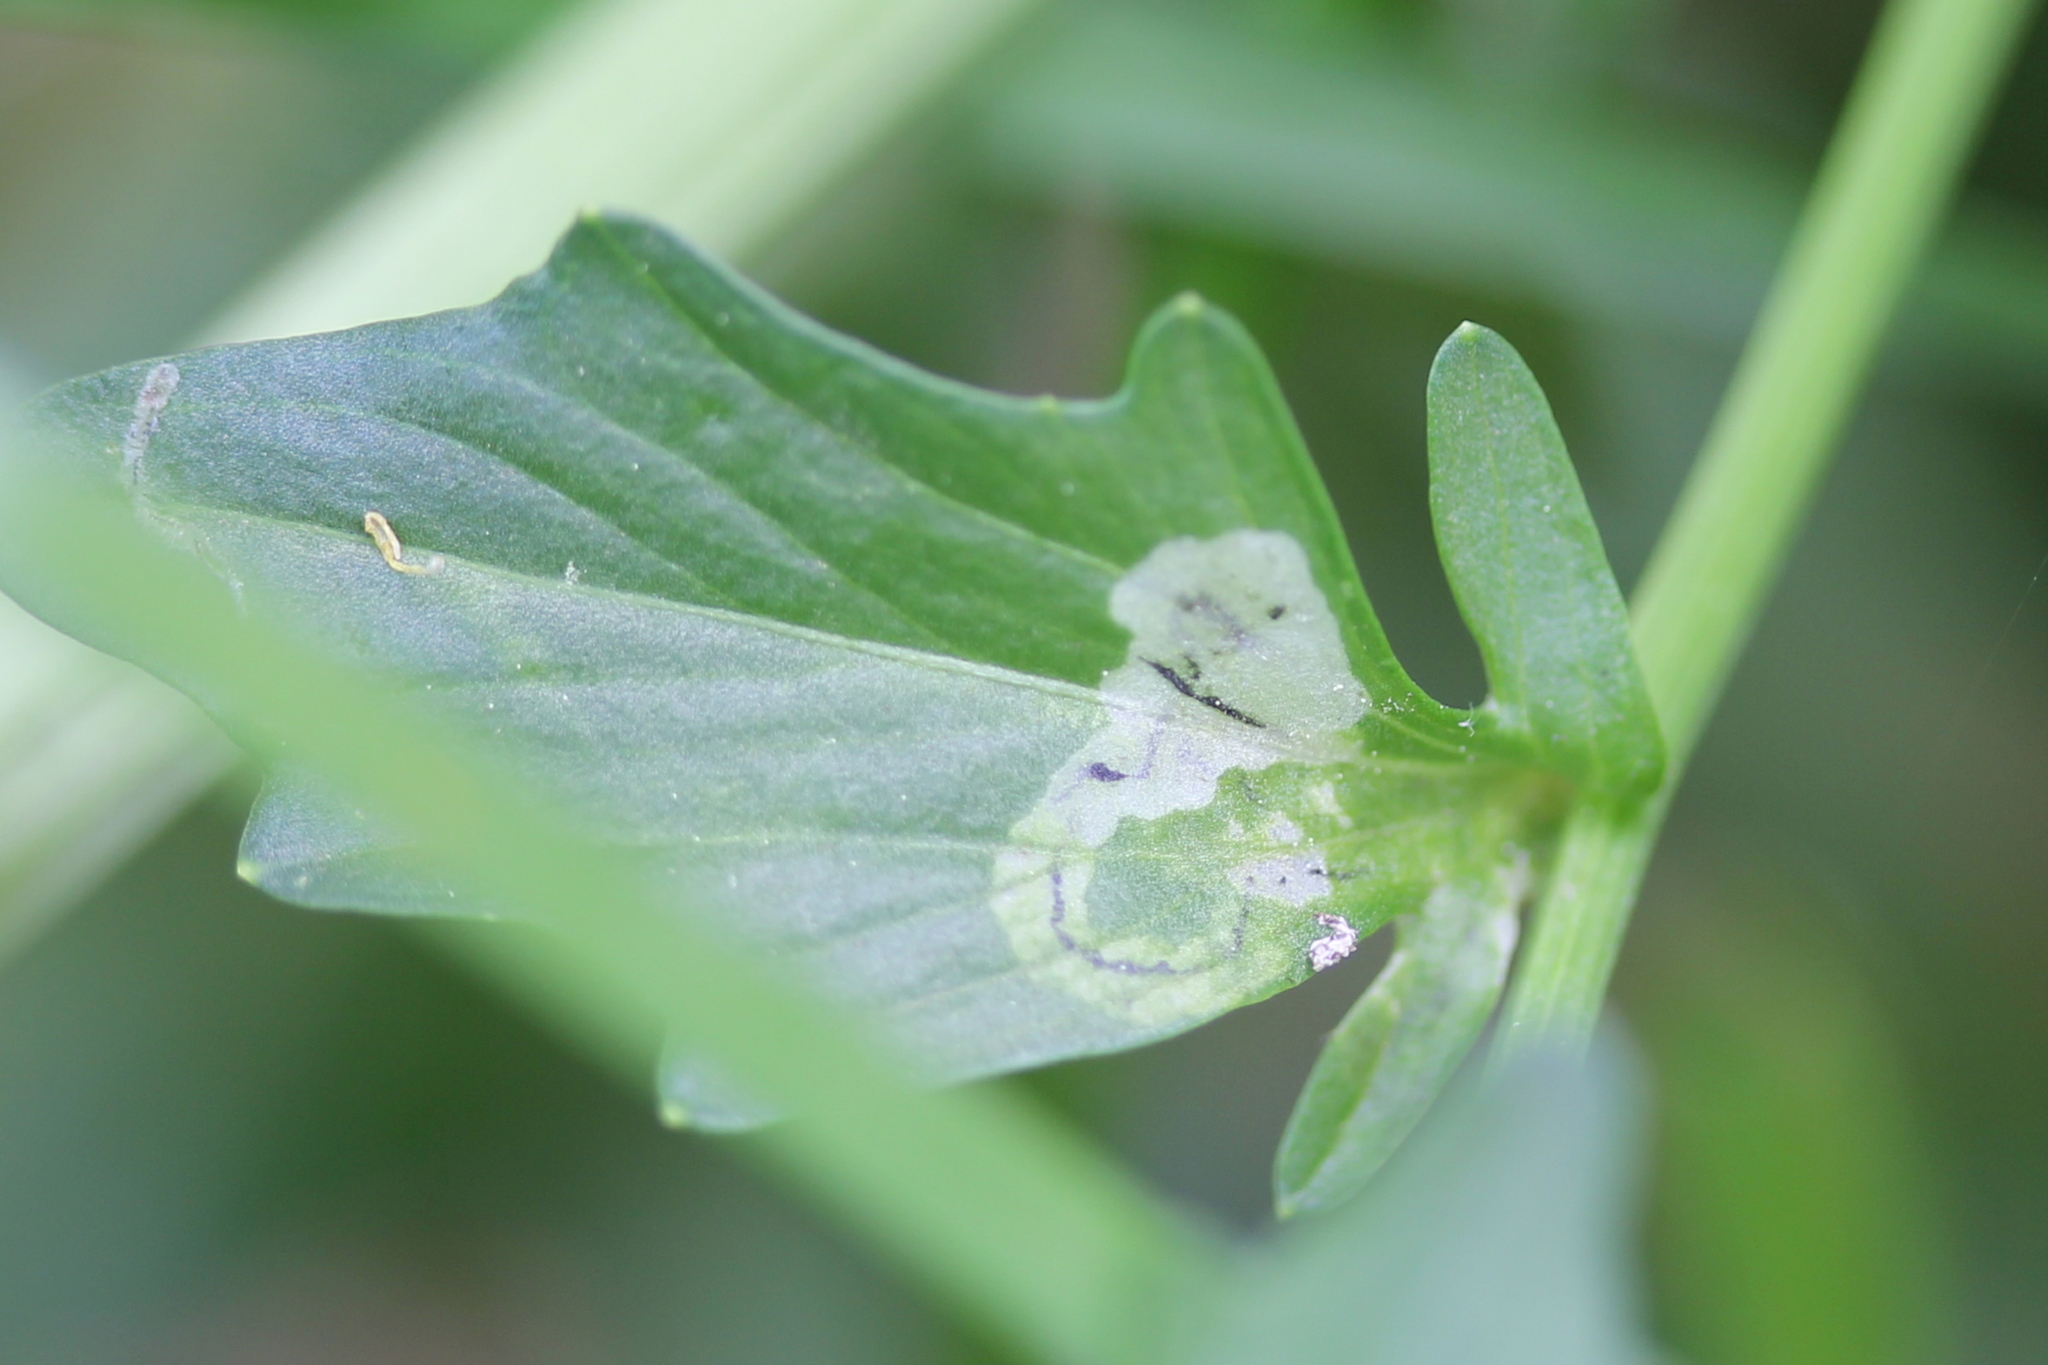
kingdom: Animalia
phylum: Arthropoda
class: Insecta
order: Diptera
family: Agromyzidae
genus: Liriomyza
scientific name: Liriomyza brassicae
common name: Serpentine leaf miner
